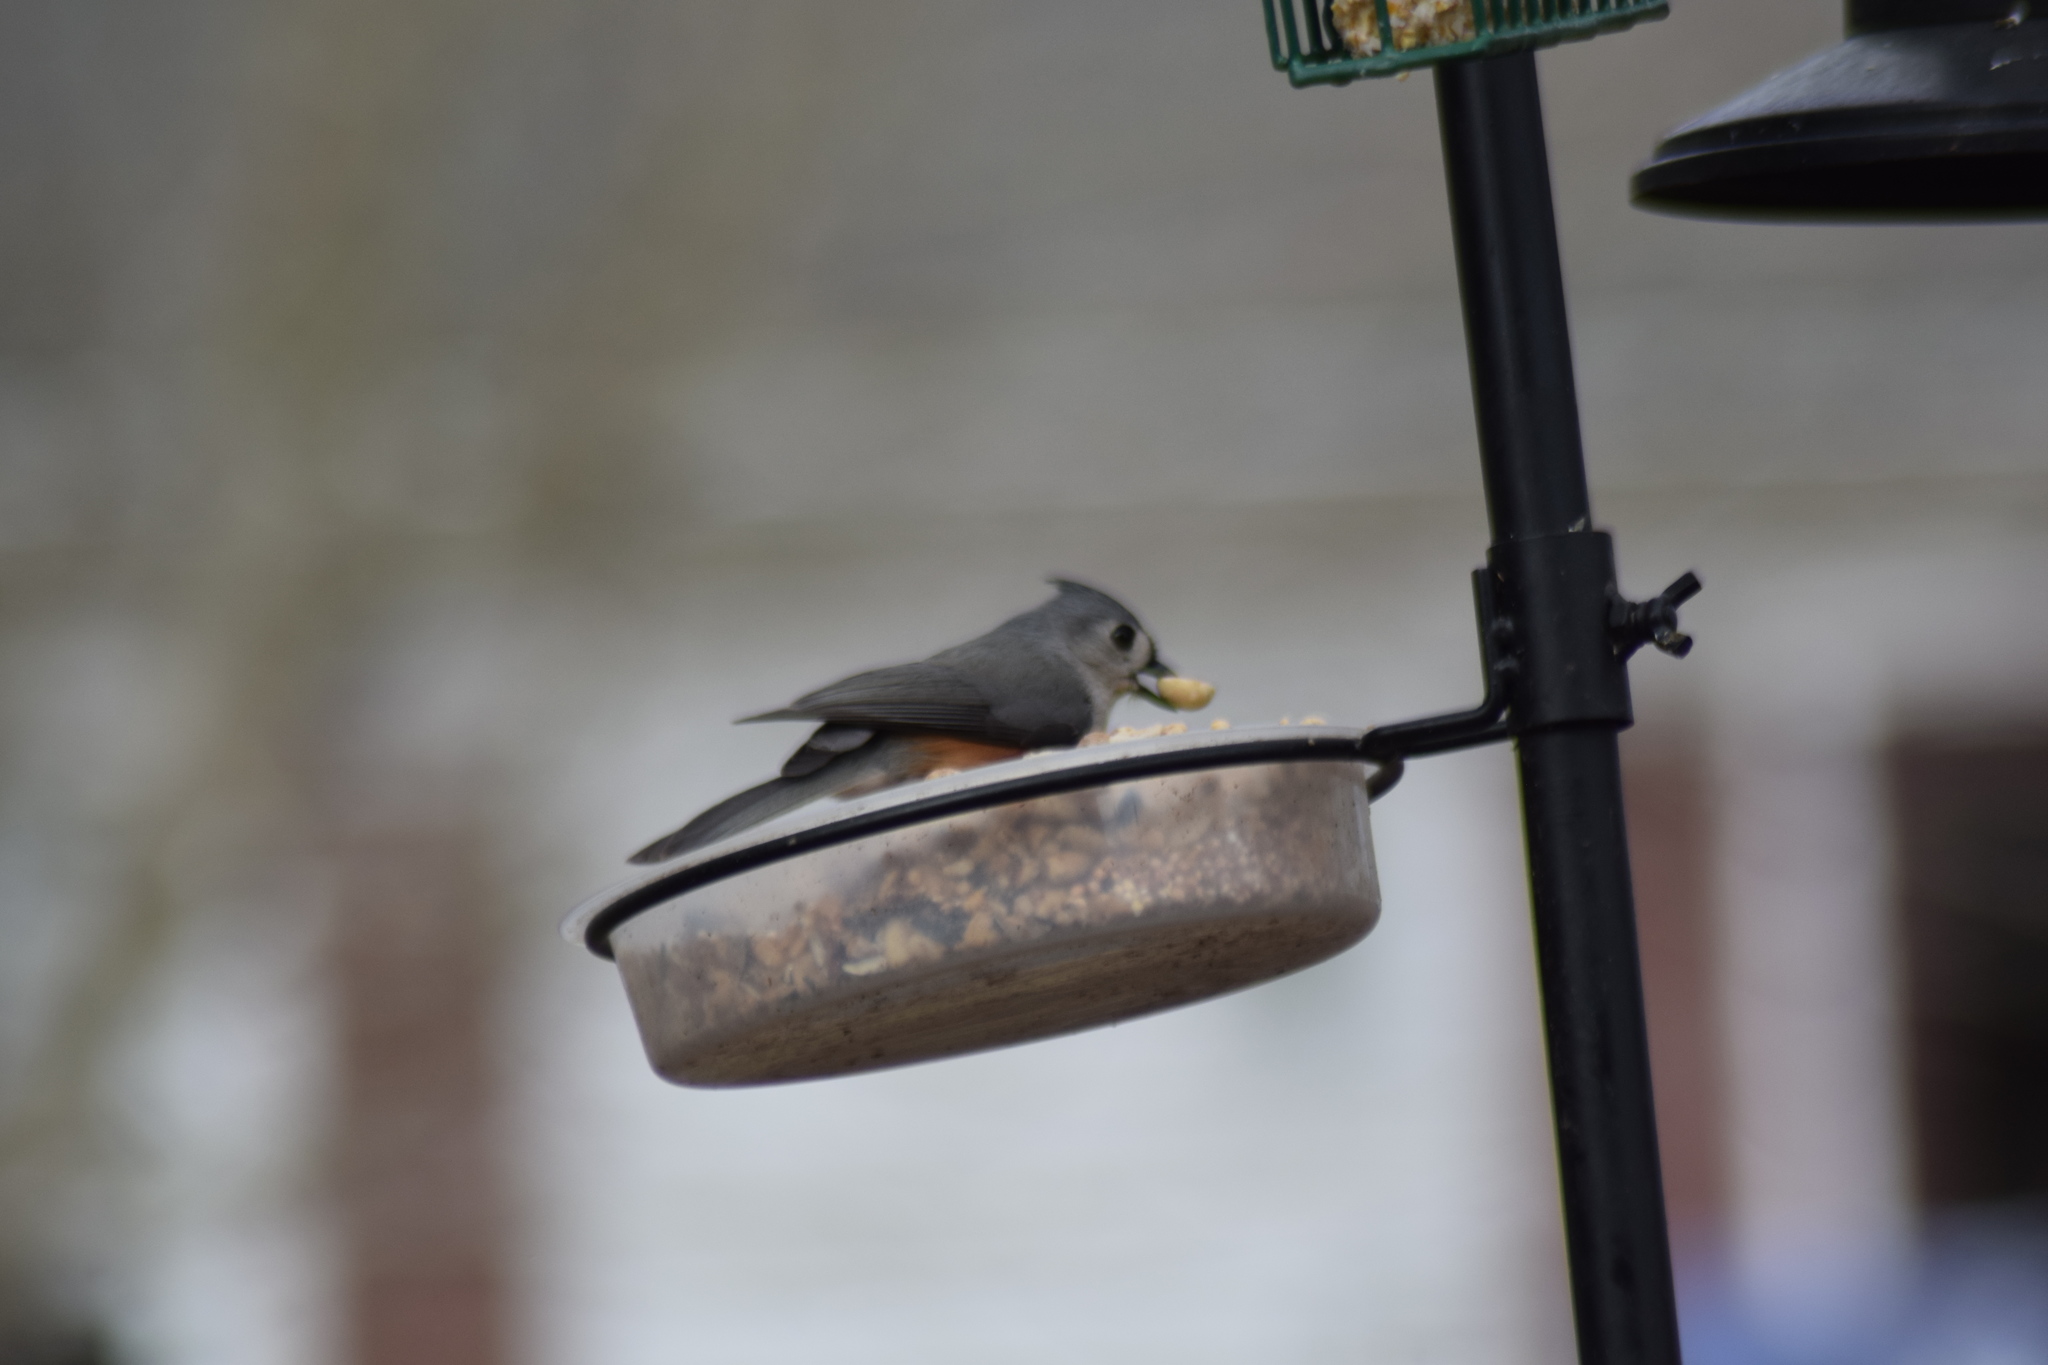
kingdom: Animalia
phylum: Chordata
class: Aves
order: Passeriformes
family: Paridae
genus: Baeolophus
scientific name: Baeolophus bicolor
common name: Tufted titmouse
